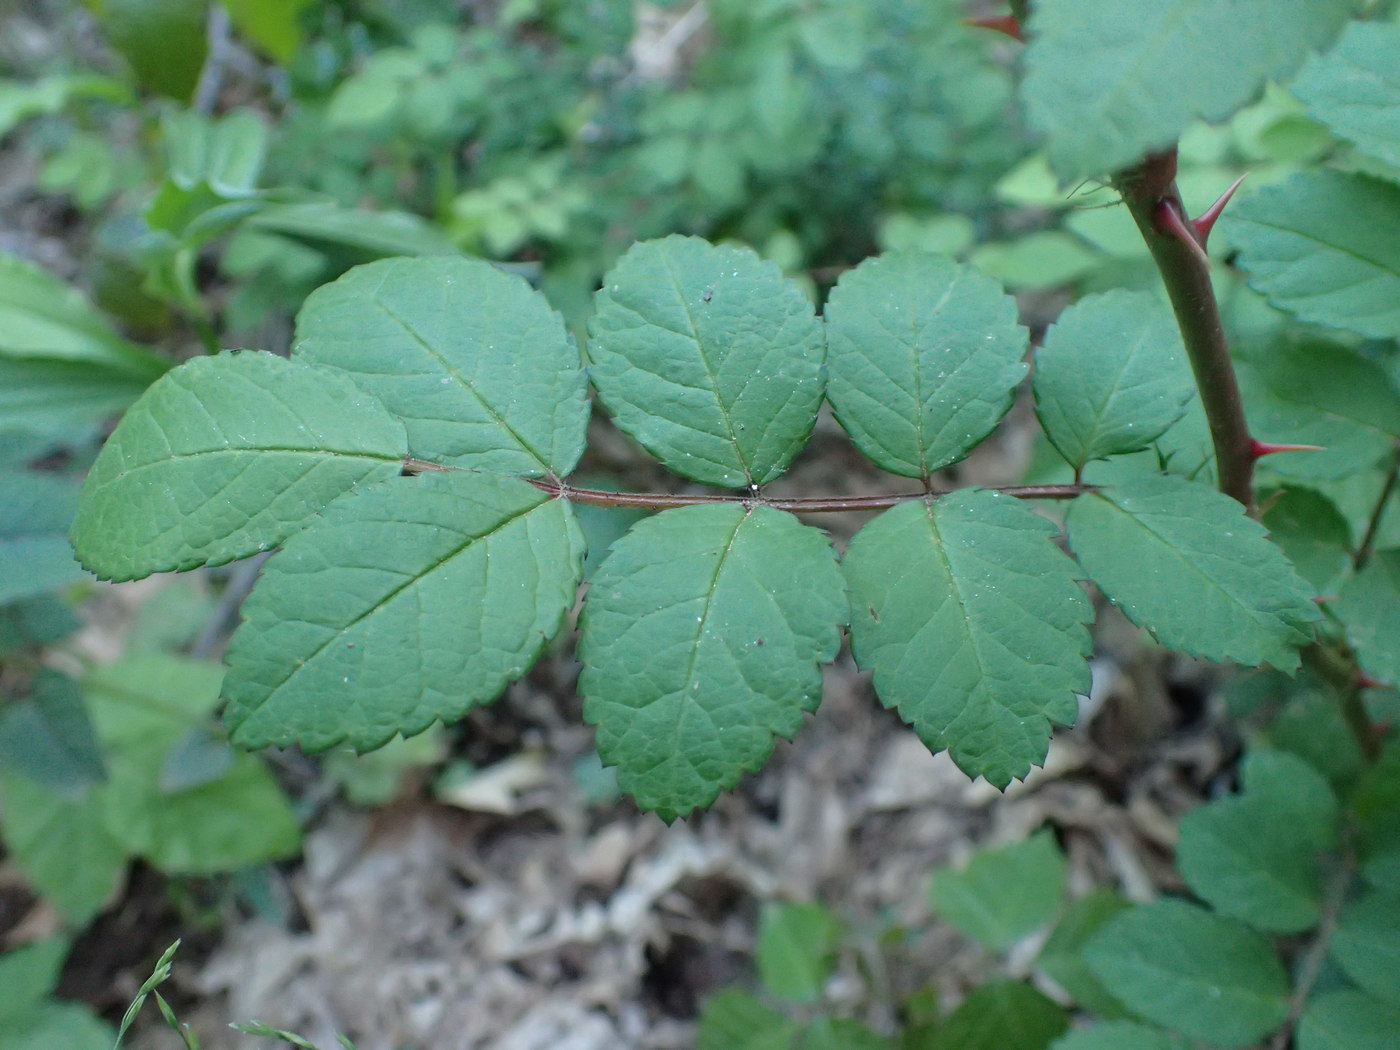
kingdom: Plantae
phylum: Tracheophyta
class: Magnoliopsida
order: Rosales
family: Rosaceae
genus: Rosa
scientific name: Rosa multiflora
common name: Multiflora rose
